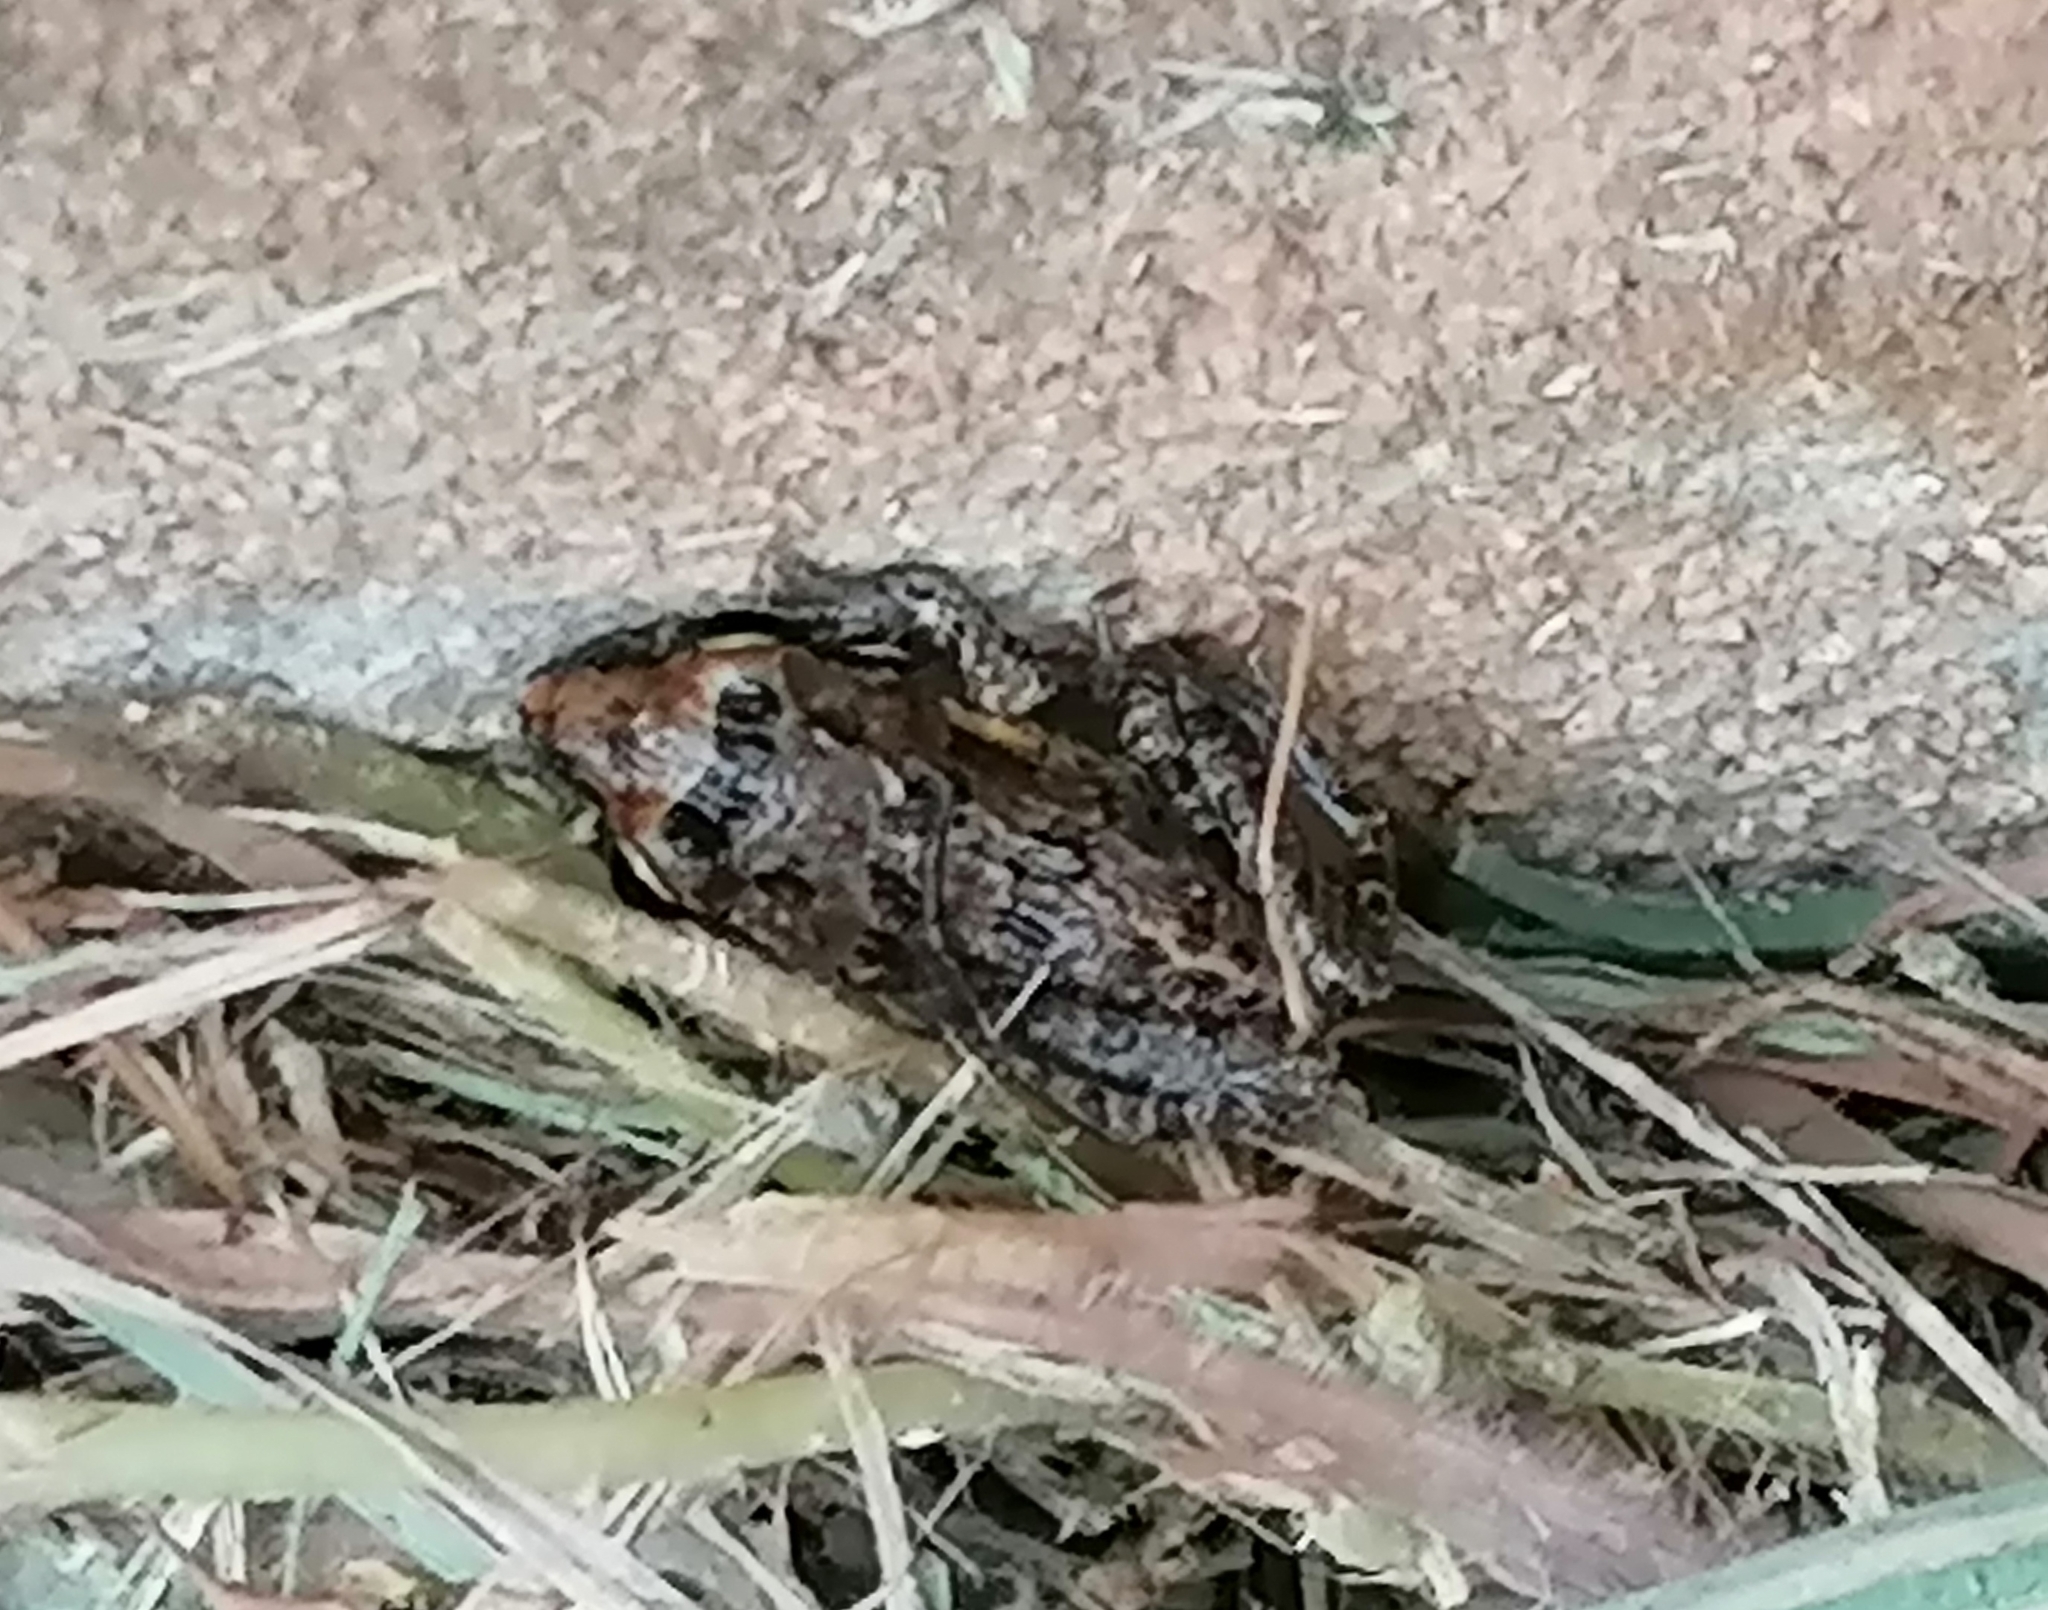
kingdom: Animalia
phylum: Chordata
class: Amphibia
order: Anura
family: Pyxicephalidae
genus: Strongylopus
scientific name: Strongylopus grayii
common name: Gray's stream frog
